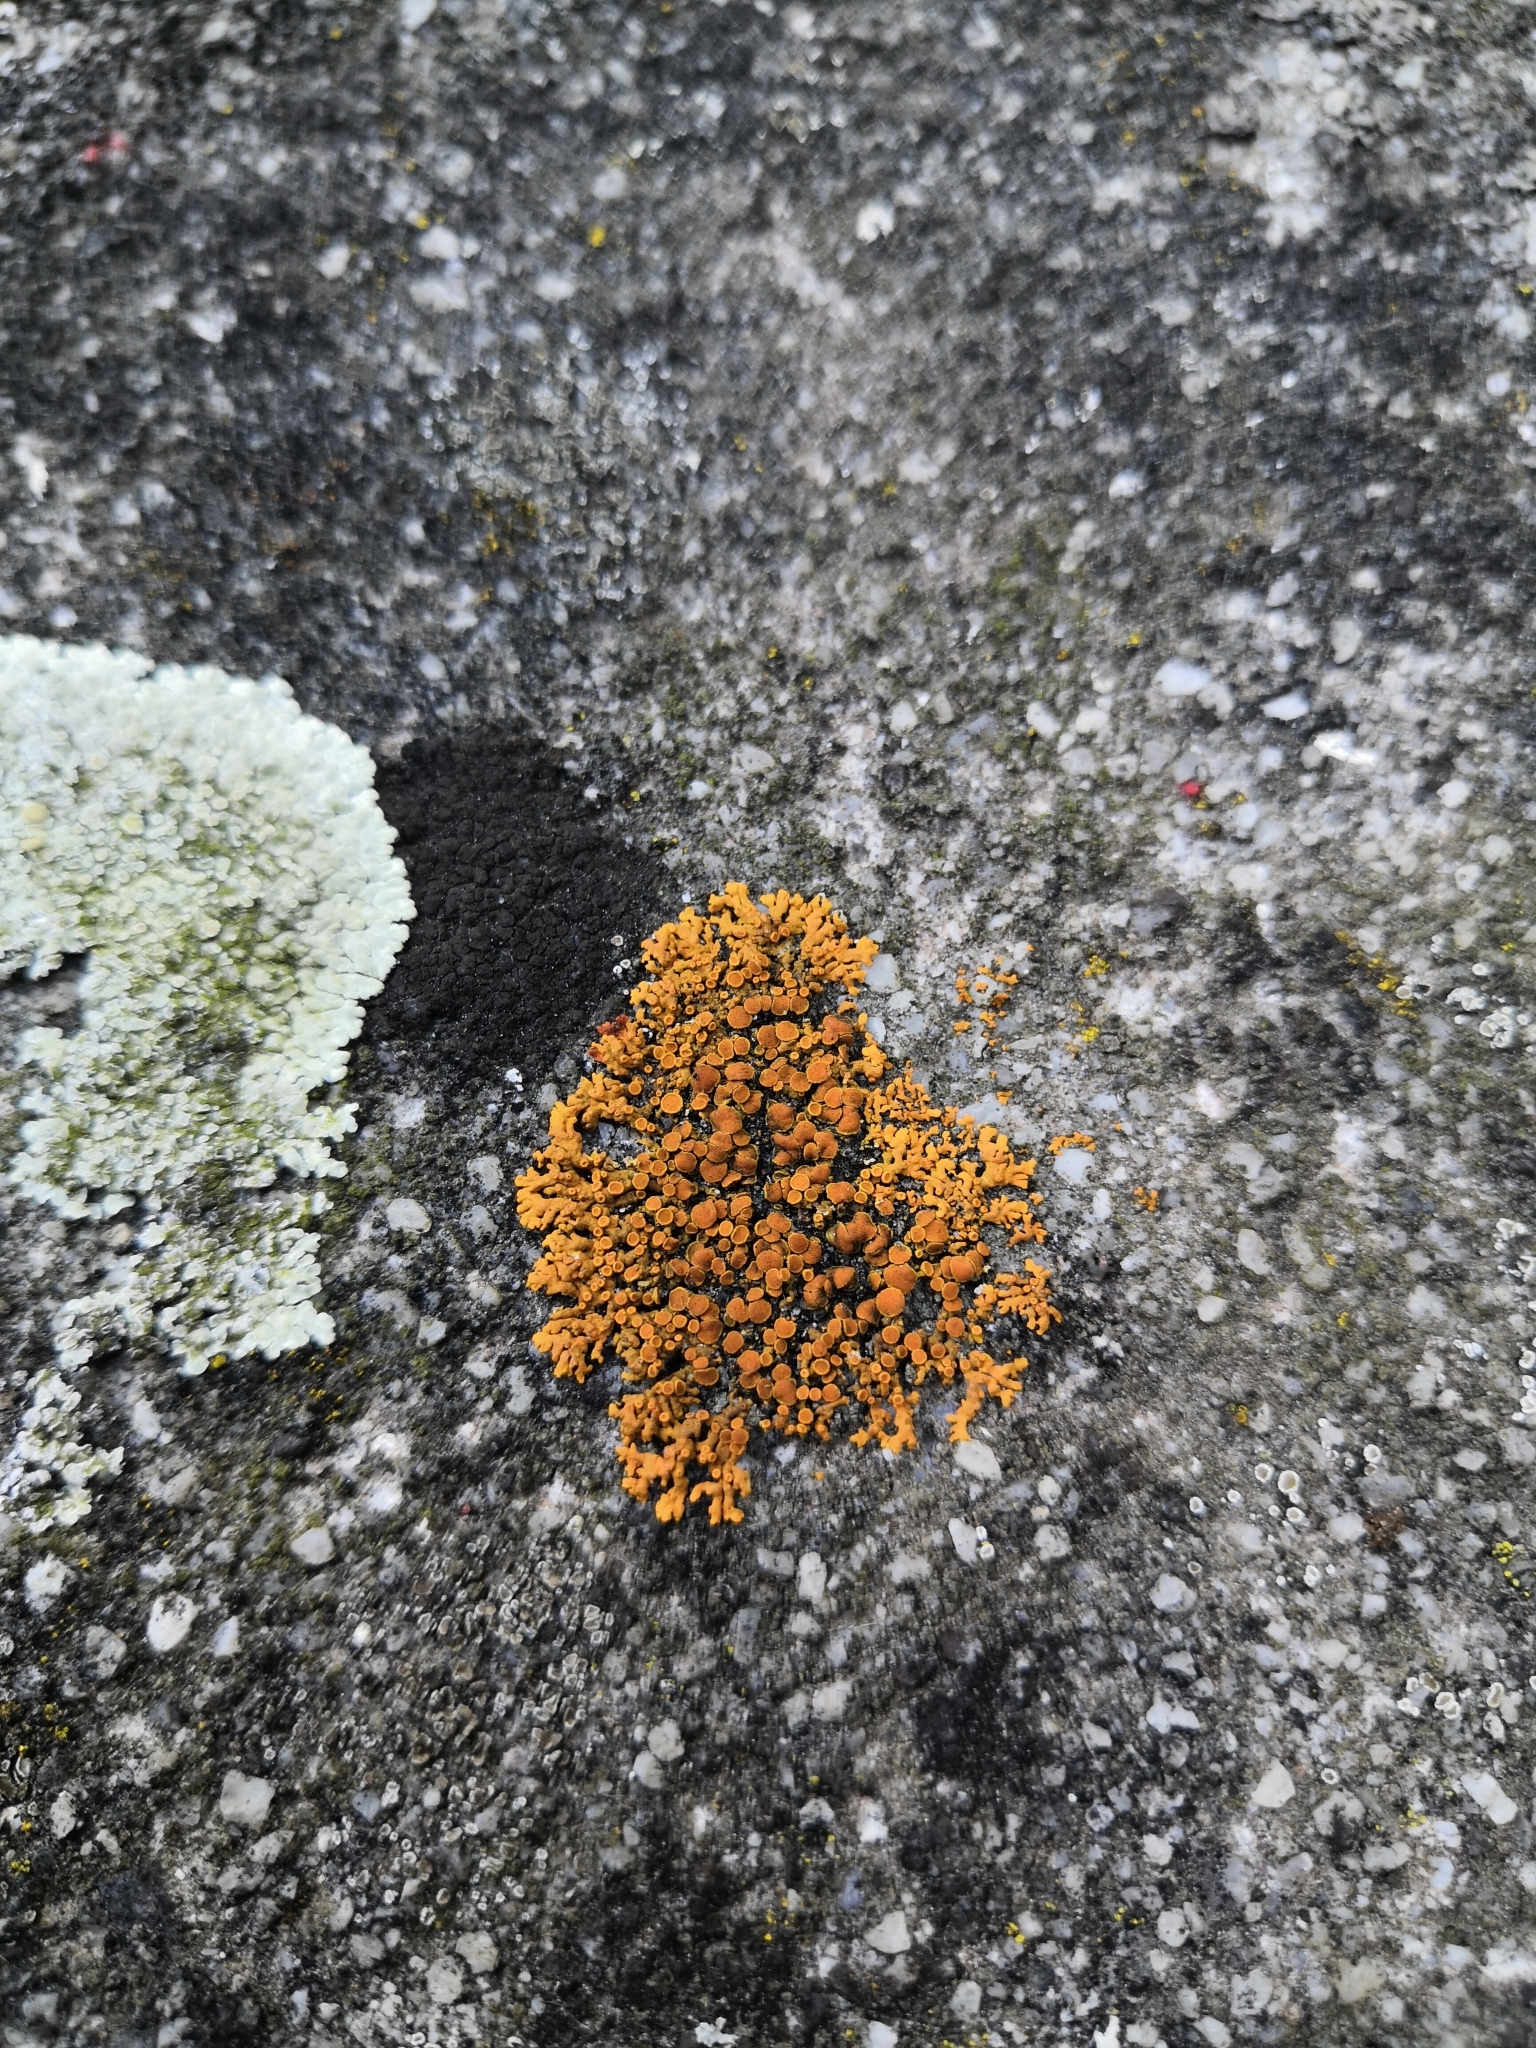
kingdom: Fungi
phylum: Ascomycota
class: Lecanoromycetes
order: Teloschistales
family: Teloschistaceae
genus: Xanthoria
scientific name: Xanthoria elegans
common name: Elegant sunburst lichen
